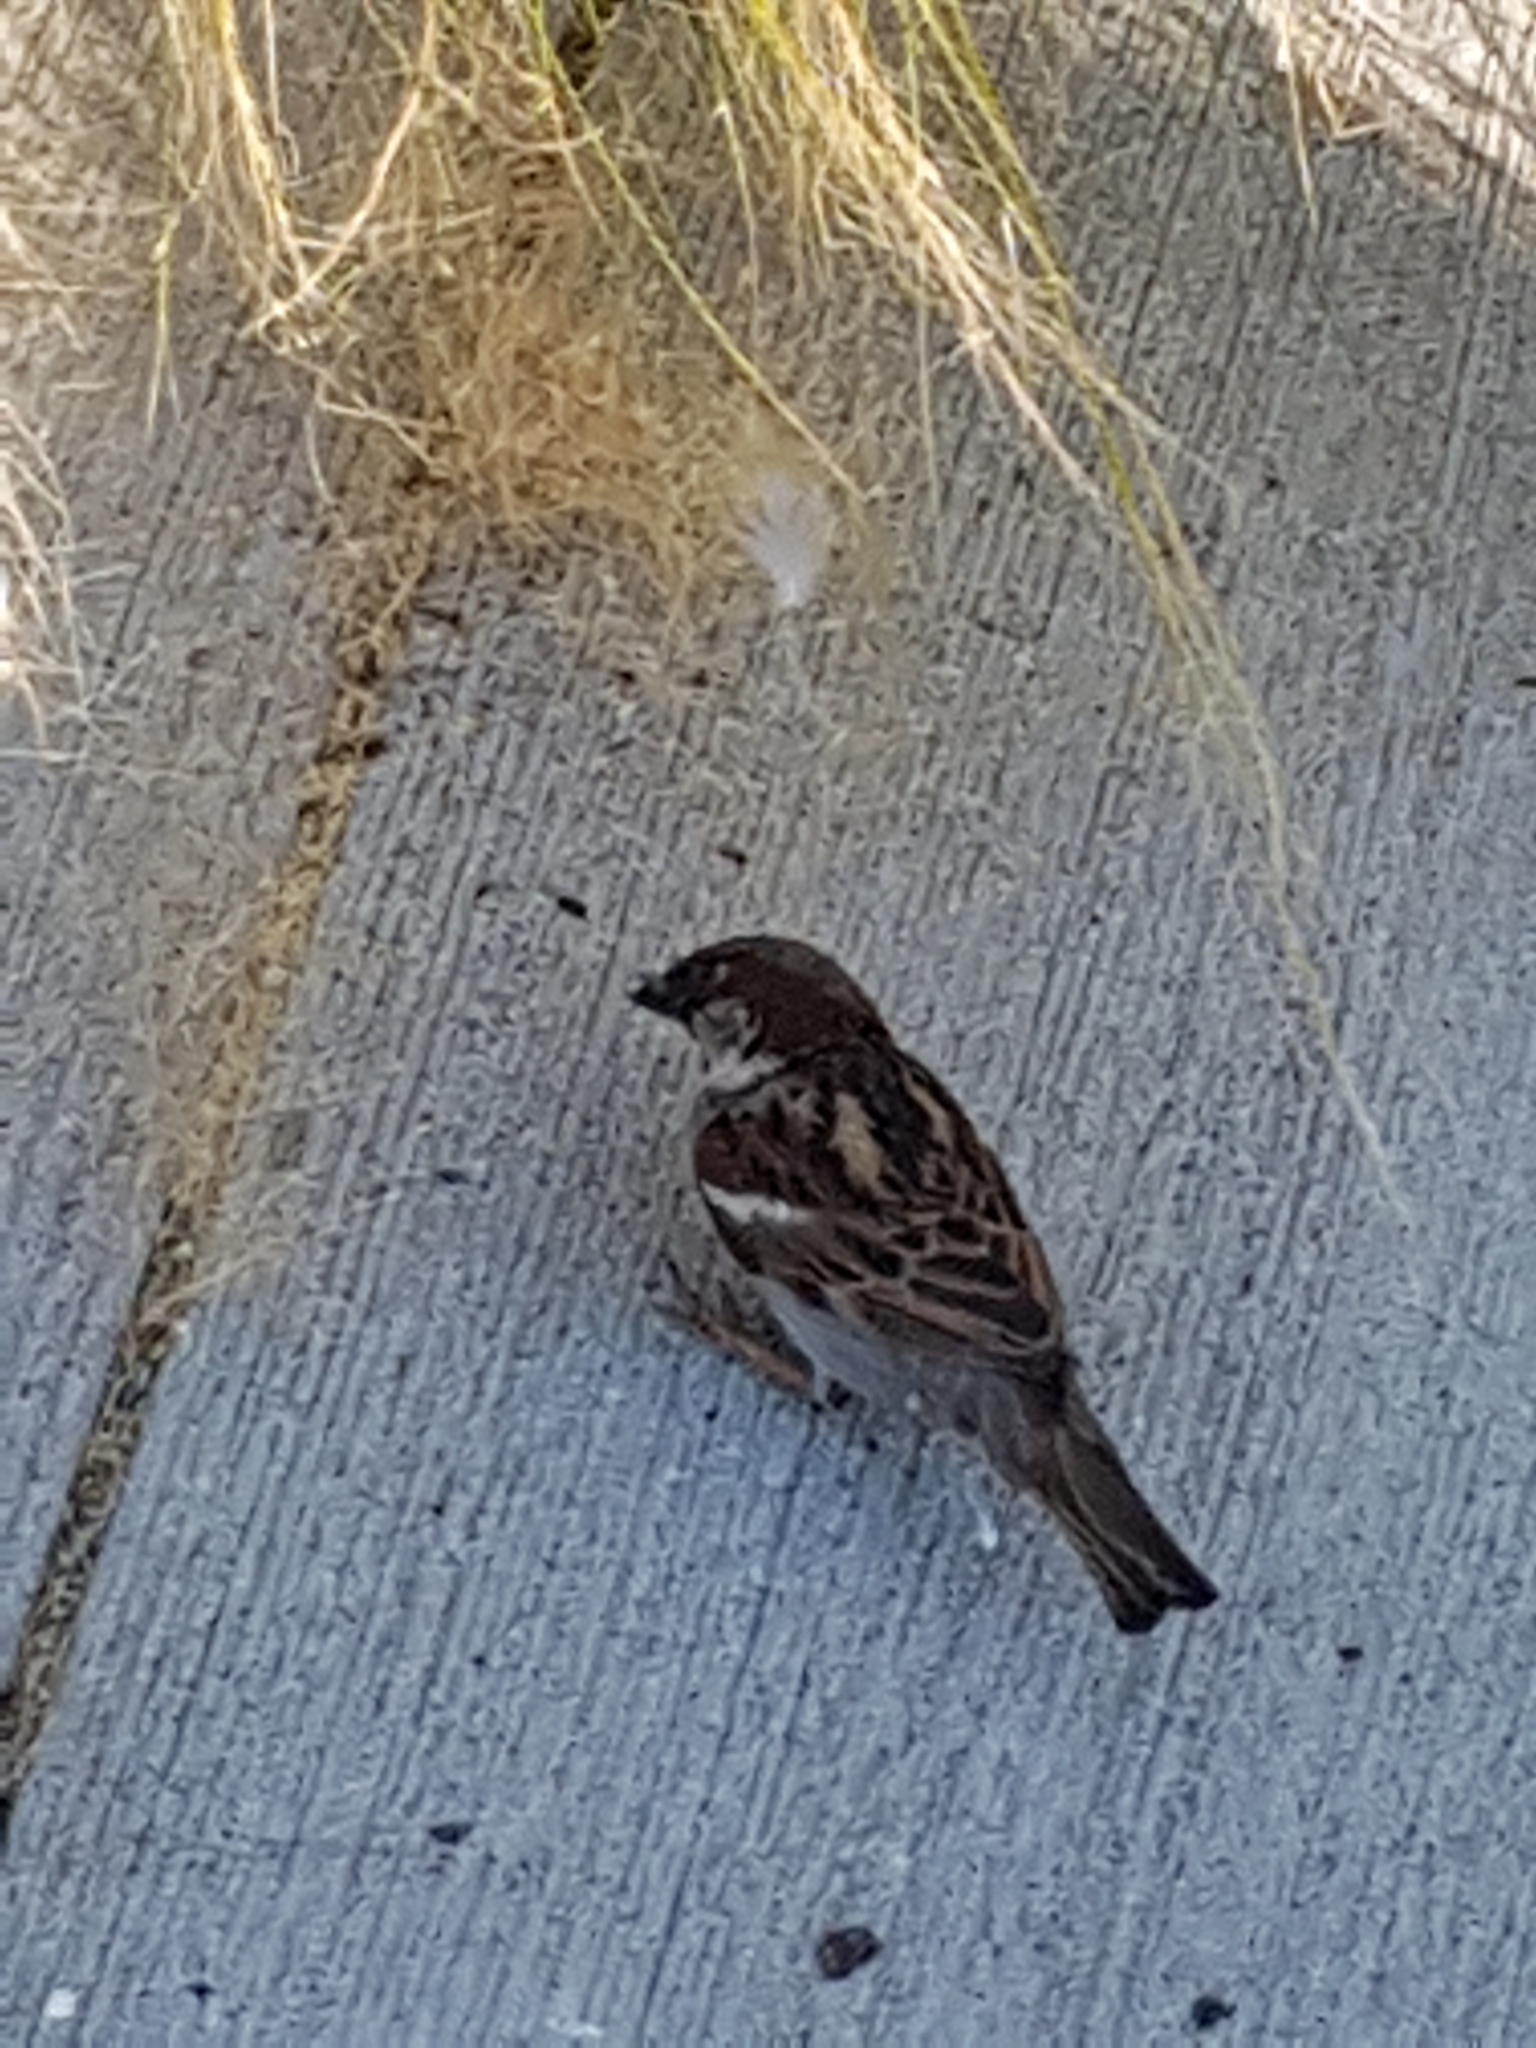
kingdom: Animalia
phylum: Chordata
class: Aves
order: Passeriformes
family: Passeridae
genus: Passer
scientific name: Passer domesticus
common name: House sparrow
